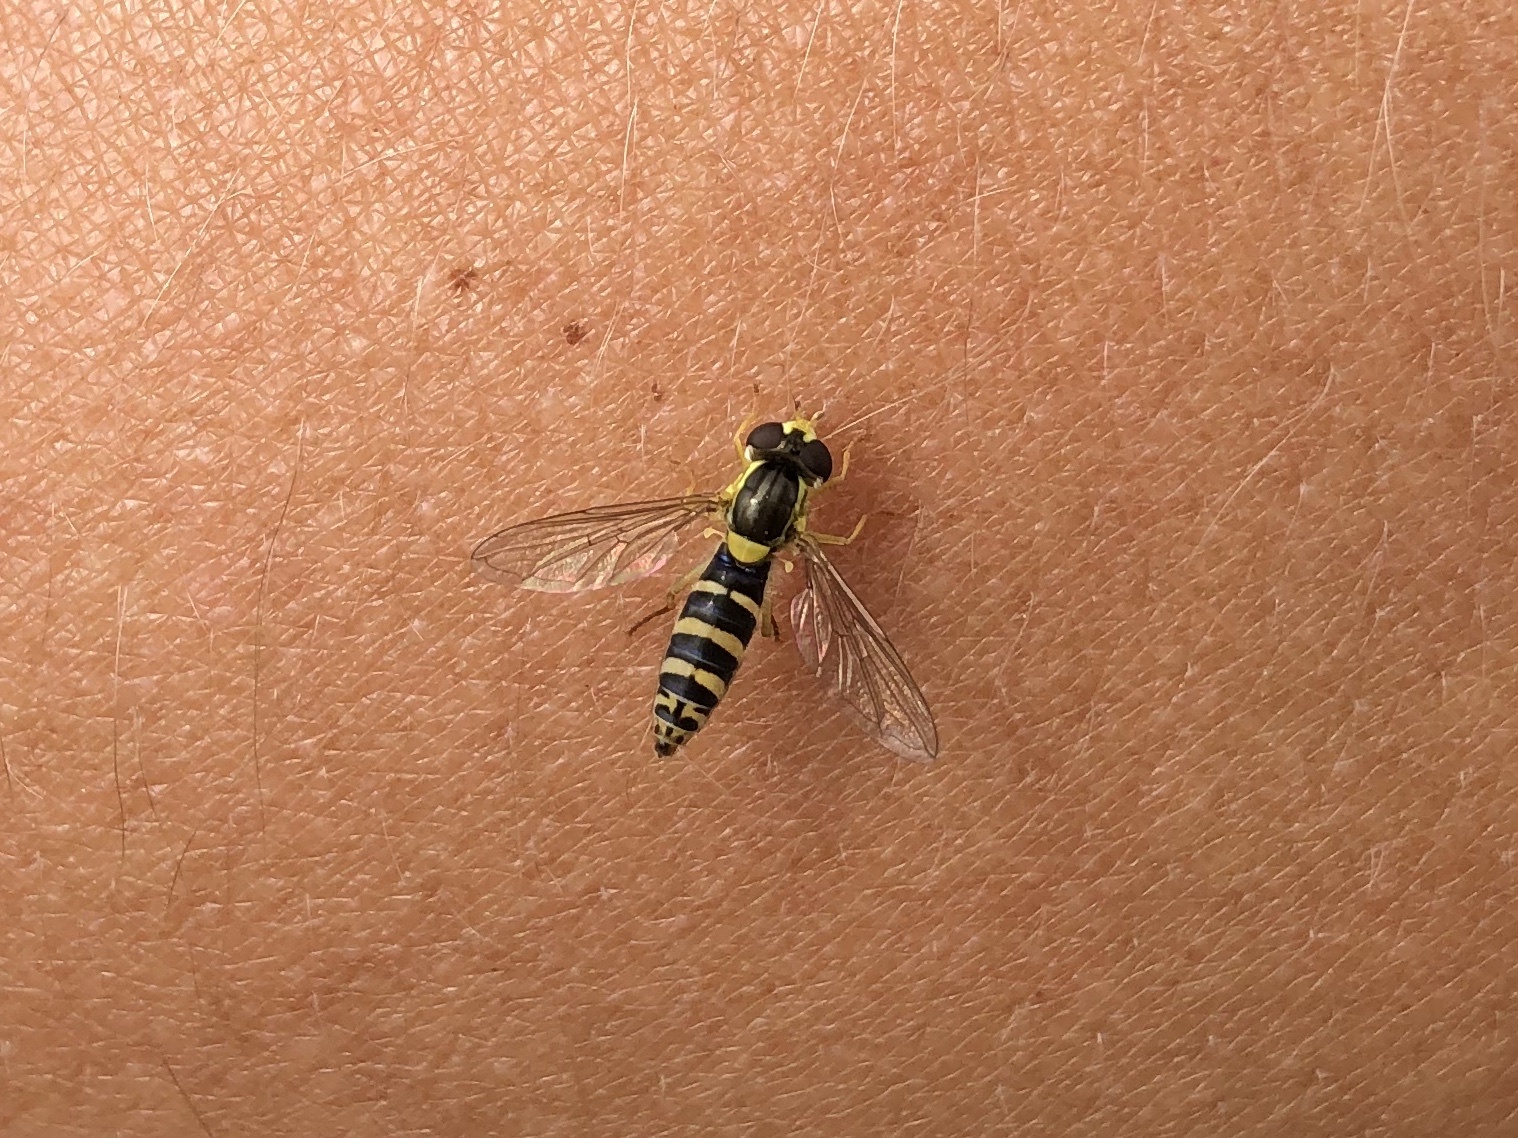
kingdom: Animalia
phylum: Arthropoda
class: Insecta
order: Diptera
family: Syrphidae
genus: Sphaerophoria
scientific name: Sphaerophoria scripta
